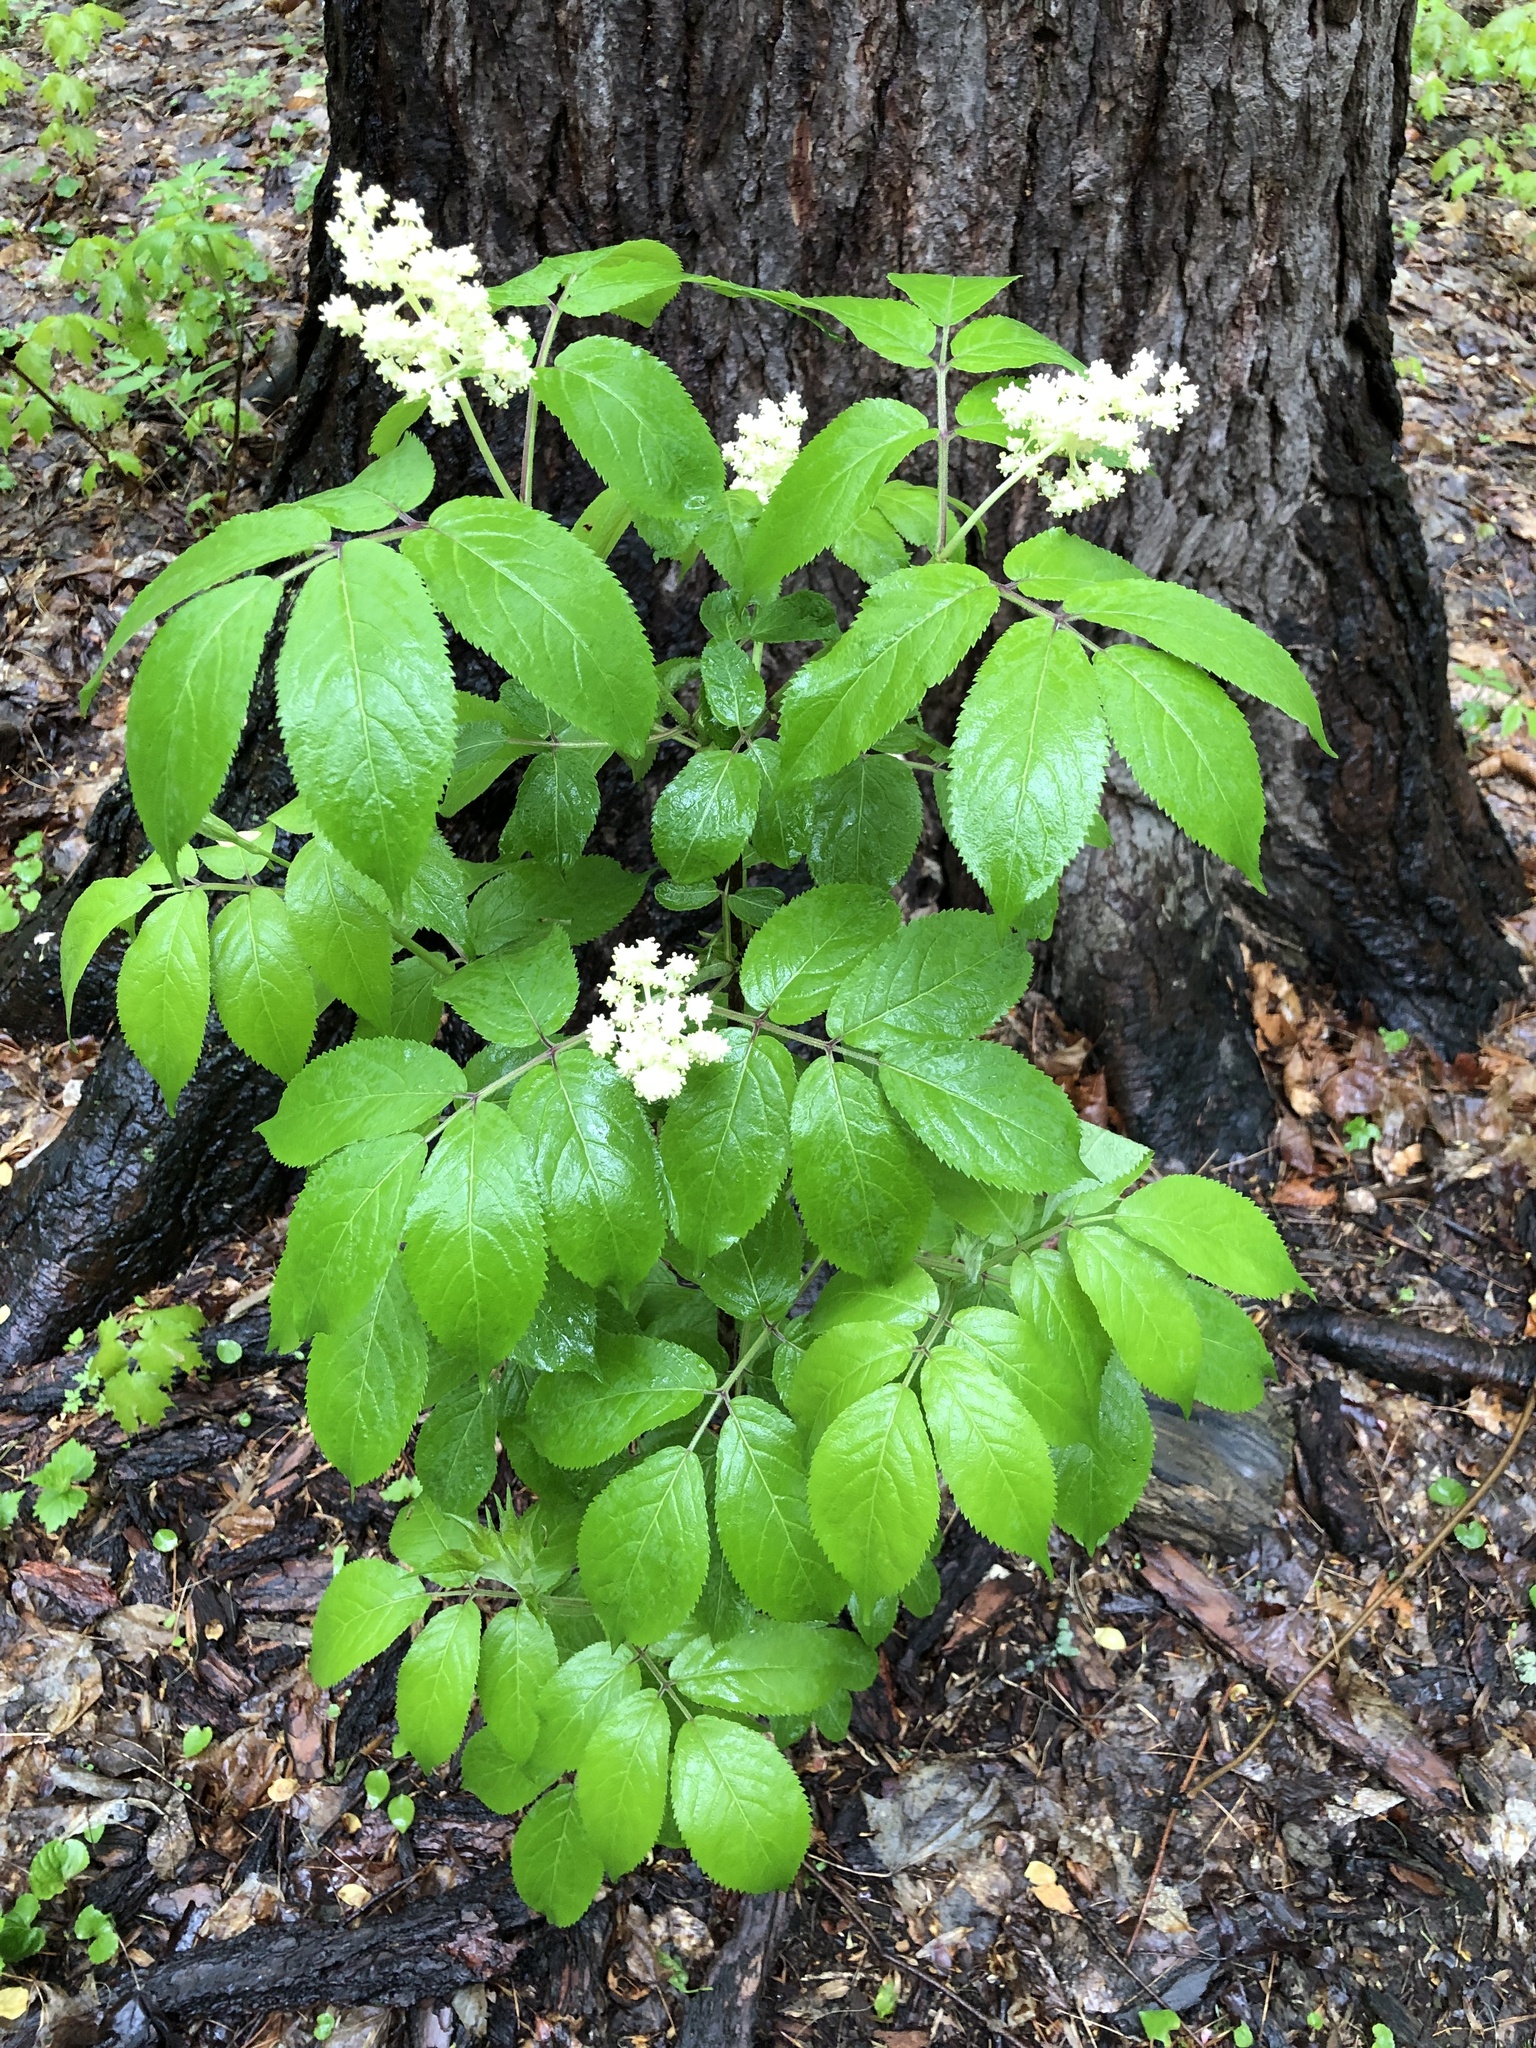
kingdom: Plantae
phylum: Tracheophyta
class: Magnoliopsida
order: Dipsacales
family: Viburnaceae
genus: Sambucus
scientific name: Sambucus racemosa
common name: Red-berried elder
